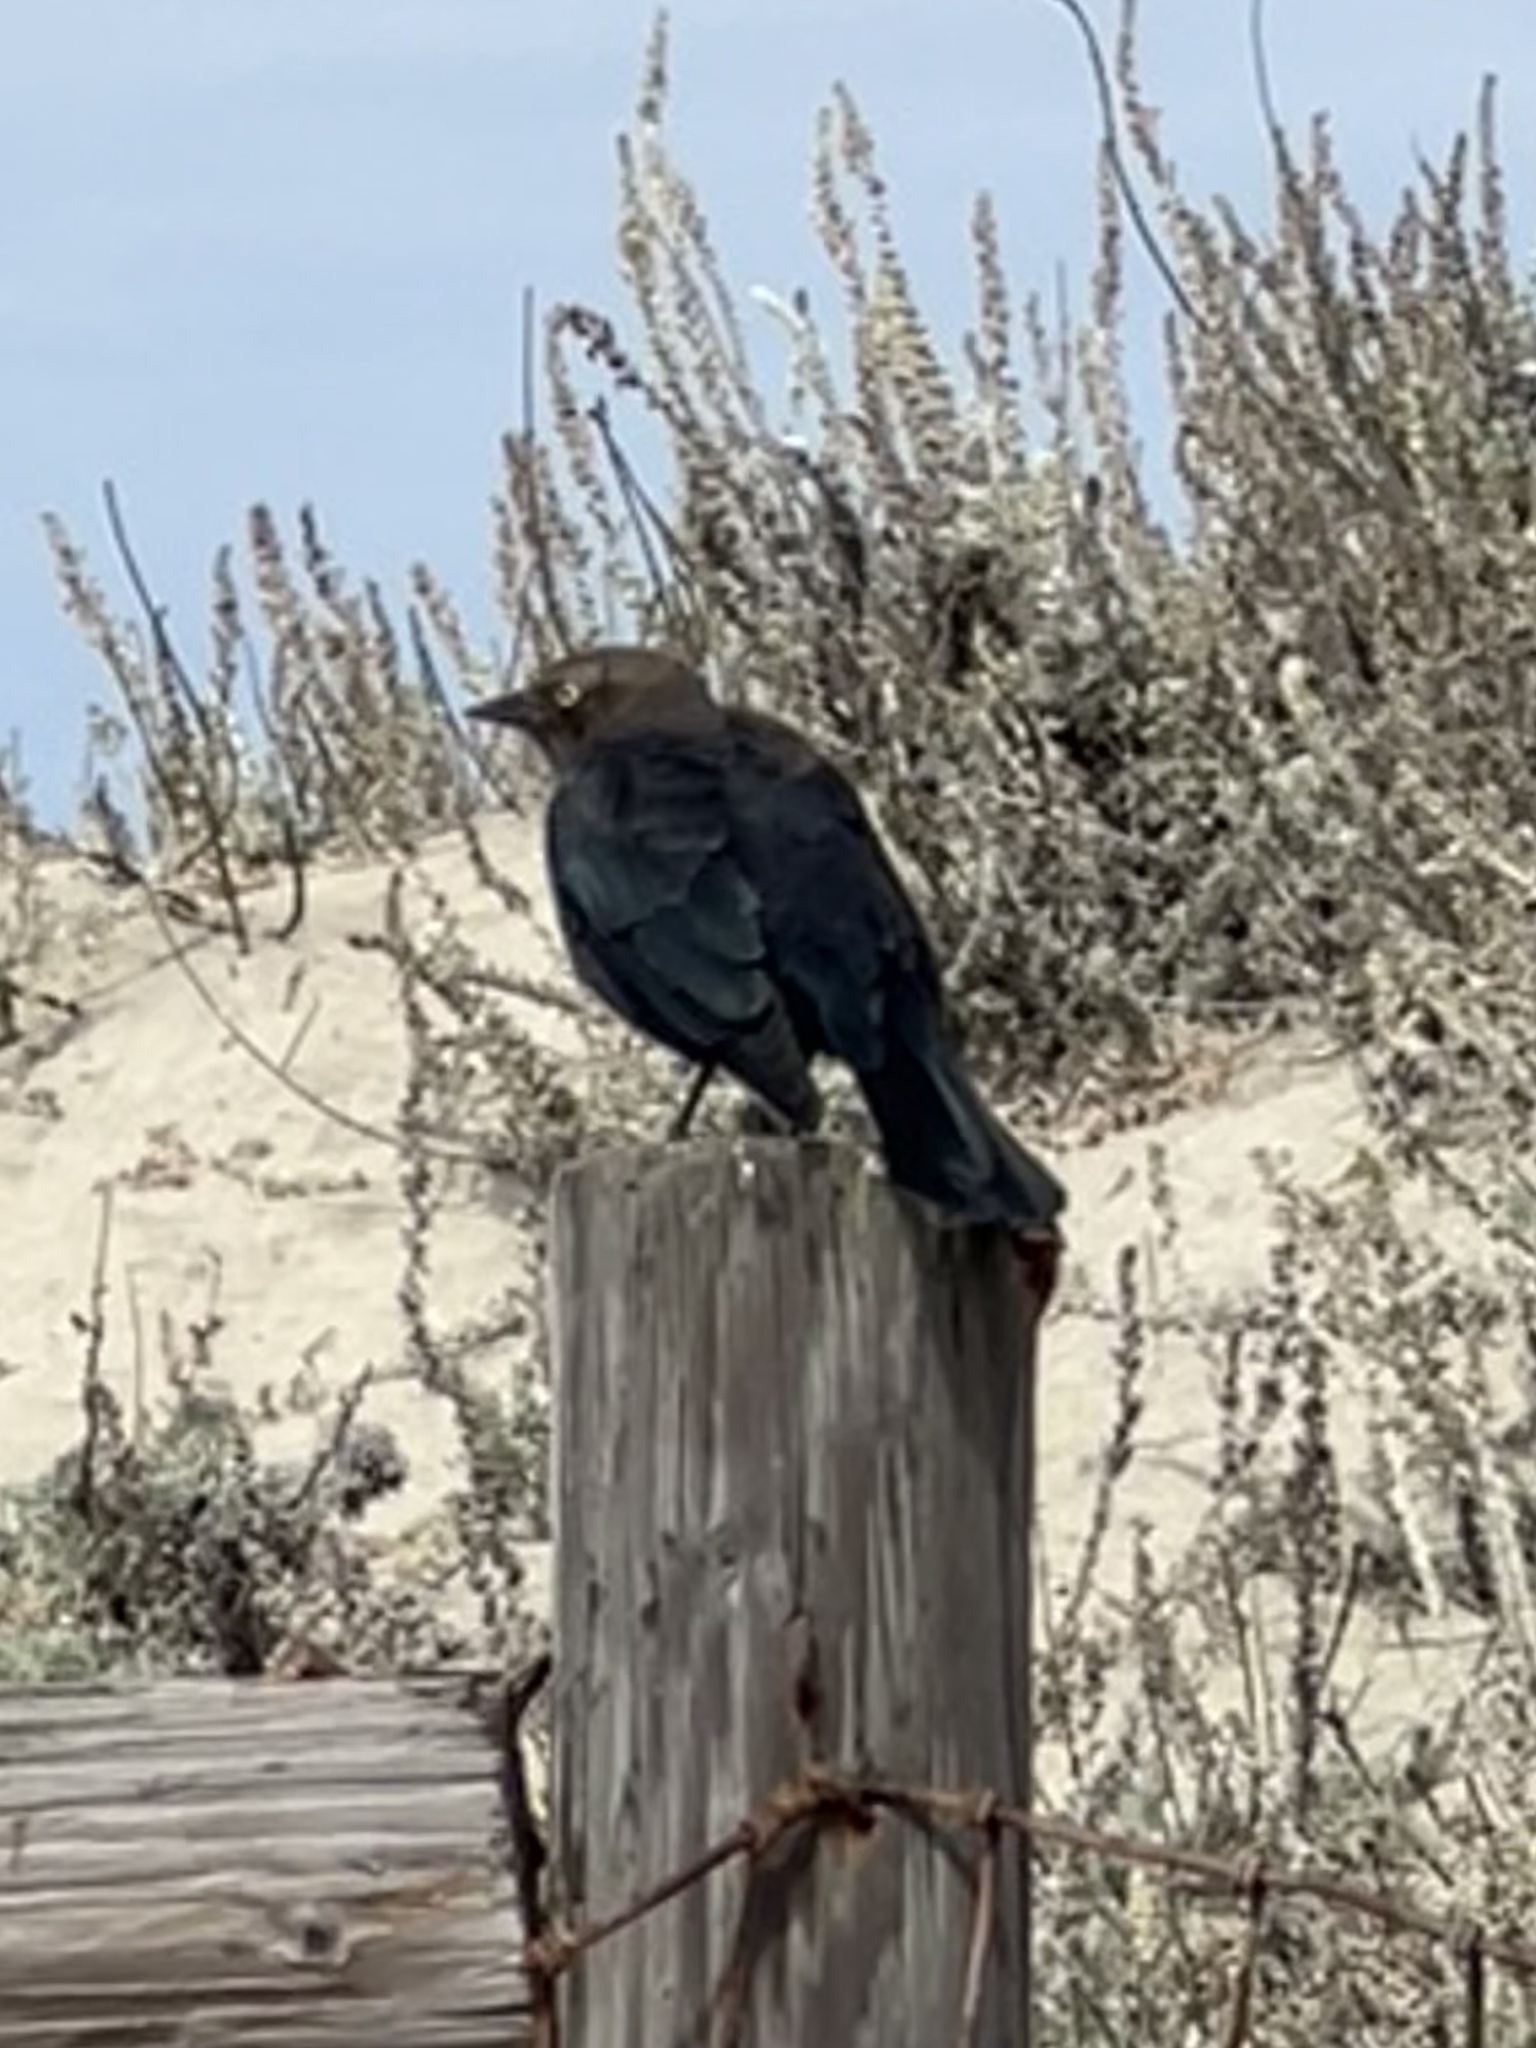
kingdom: Animalia
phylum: Chordata
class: Aves
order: Passeriformes
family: Icteridae
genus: Euphagus
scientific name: Euphagus cyanocephalus
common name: Brewer's blackbird
